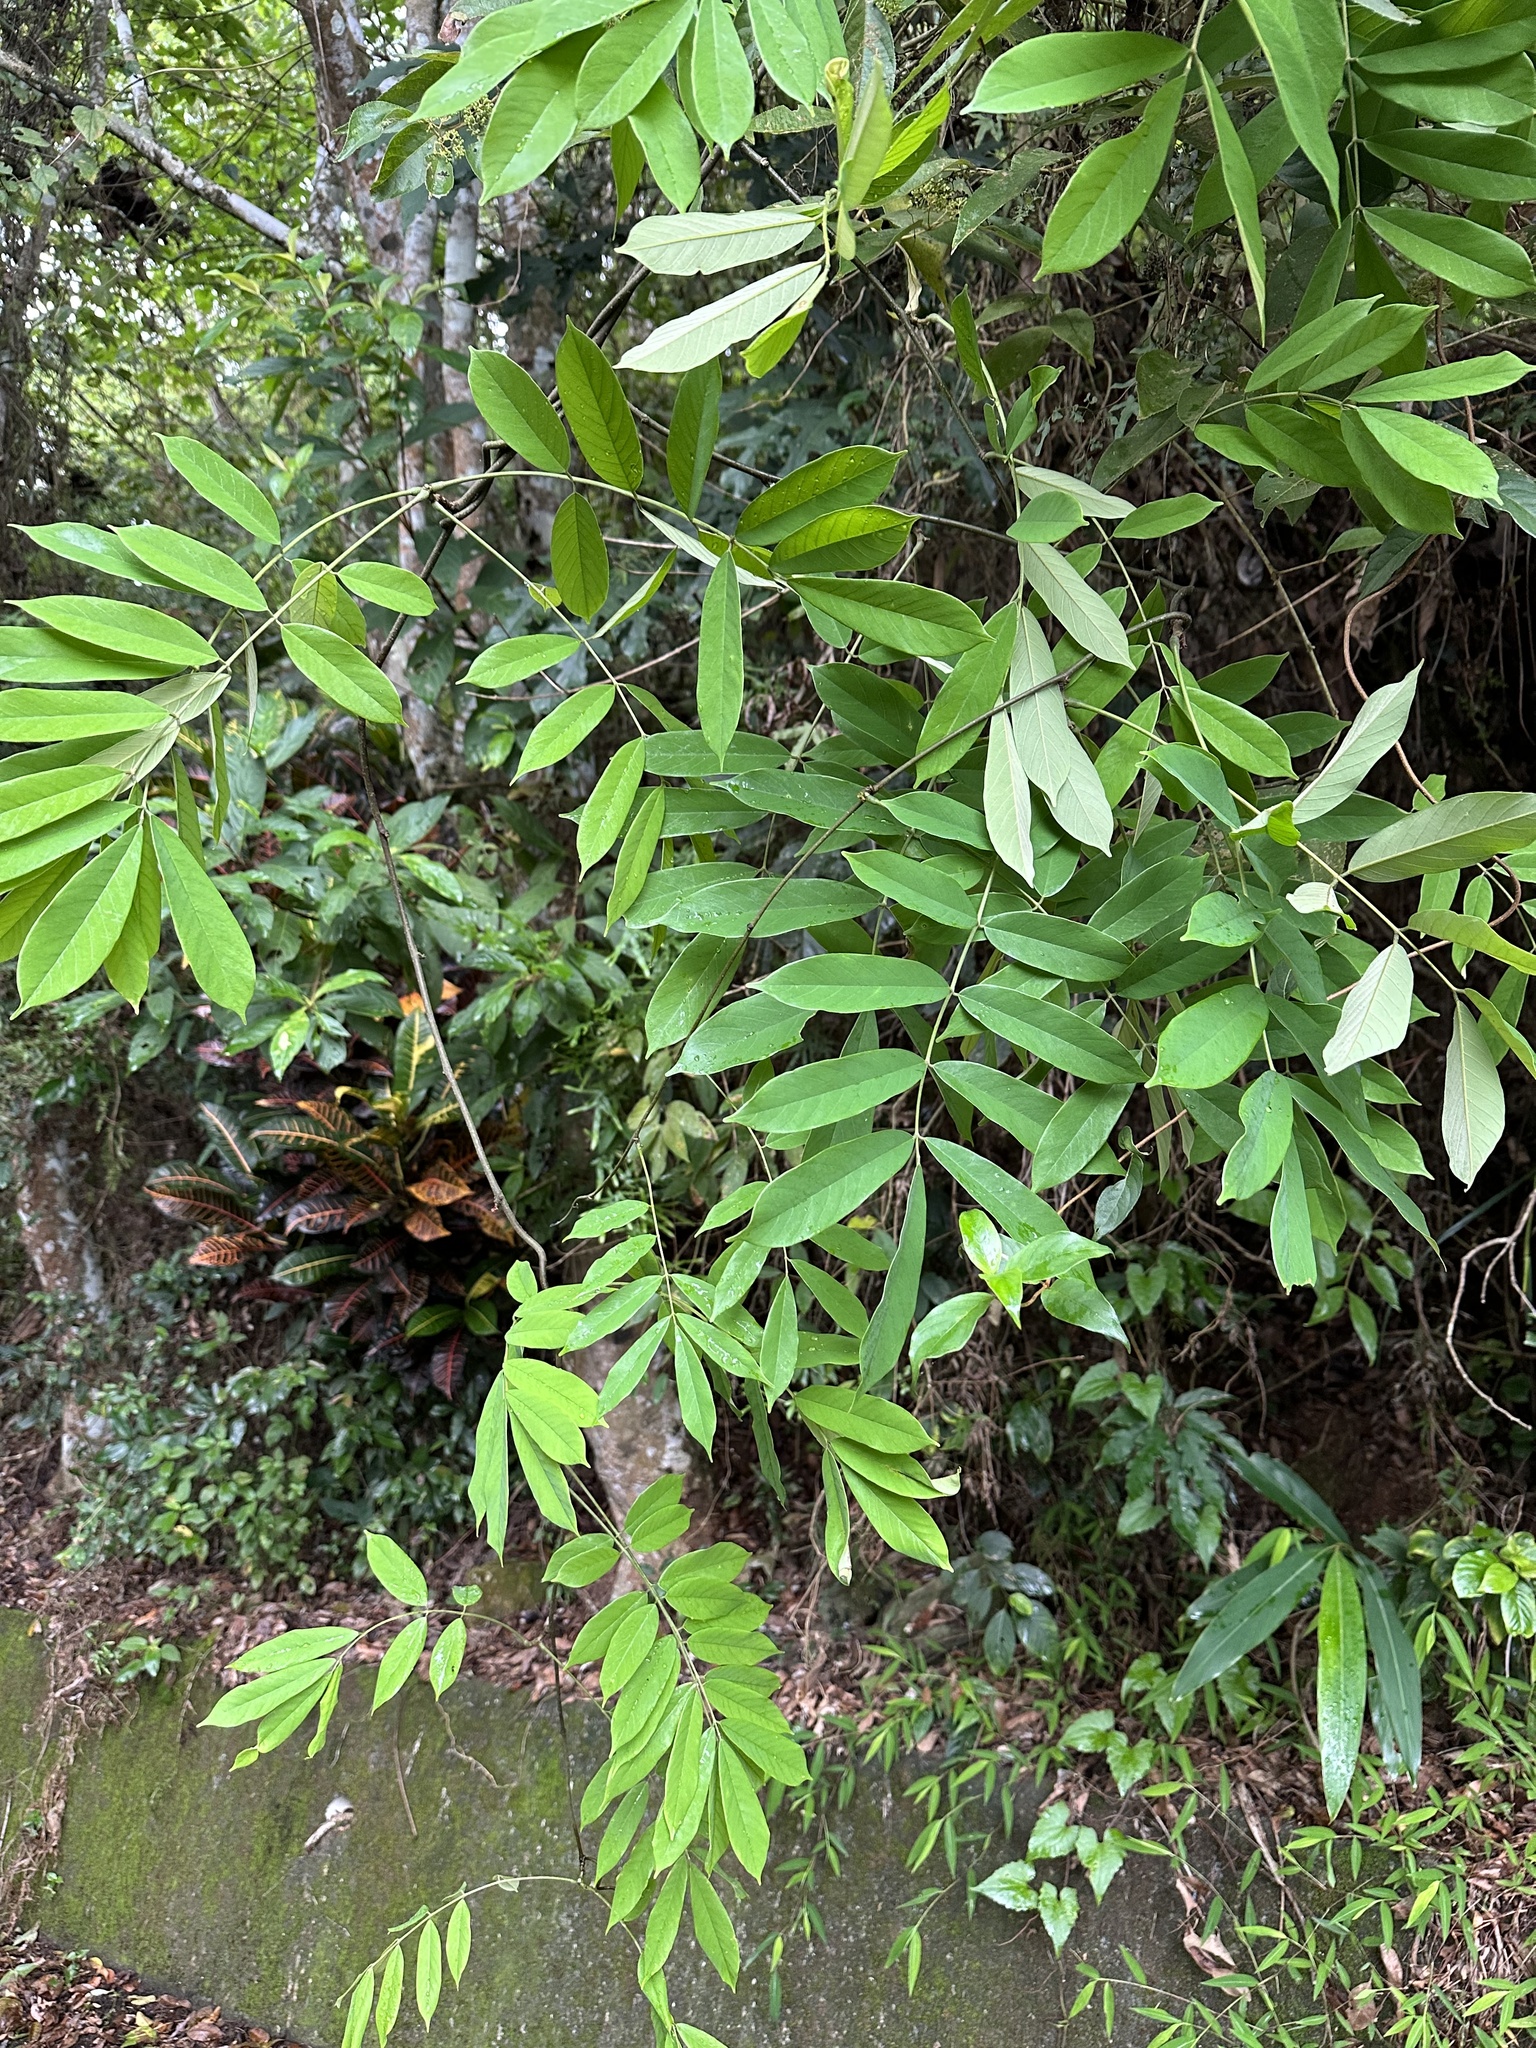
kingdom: Plantae
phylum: Tracheophyta
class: Magnoliopsida
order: Fabales
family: Fabaceae
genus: Millettia
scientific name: Millettia pachycarpa
